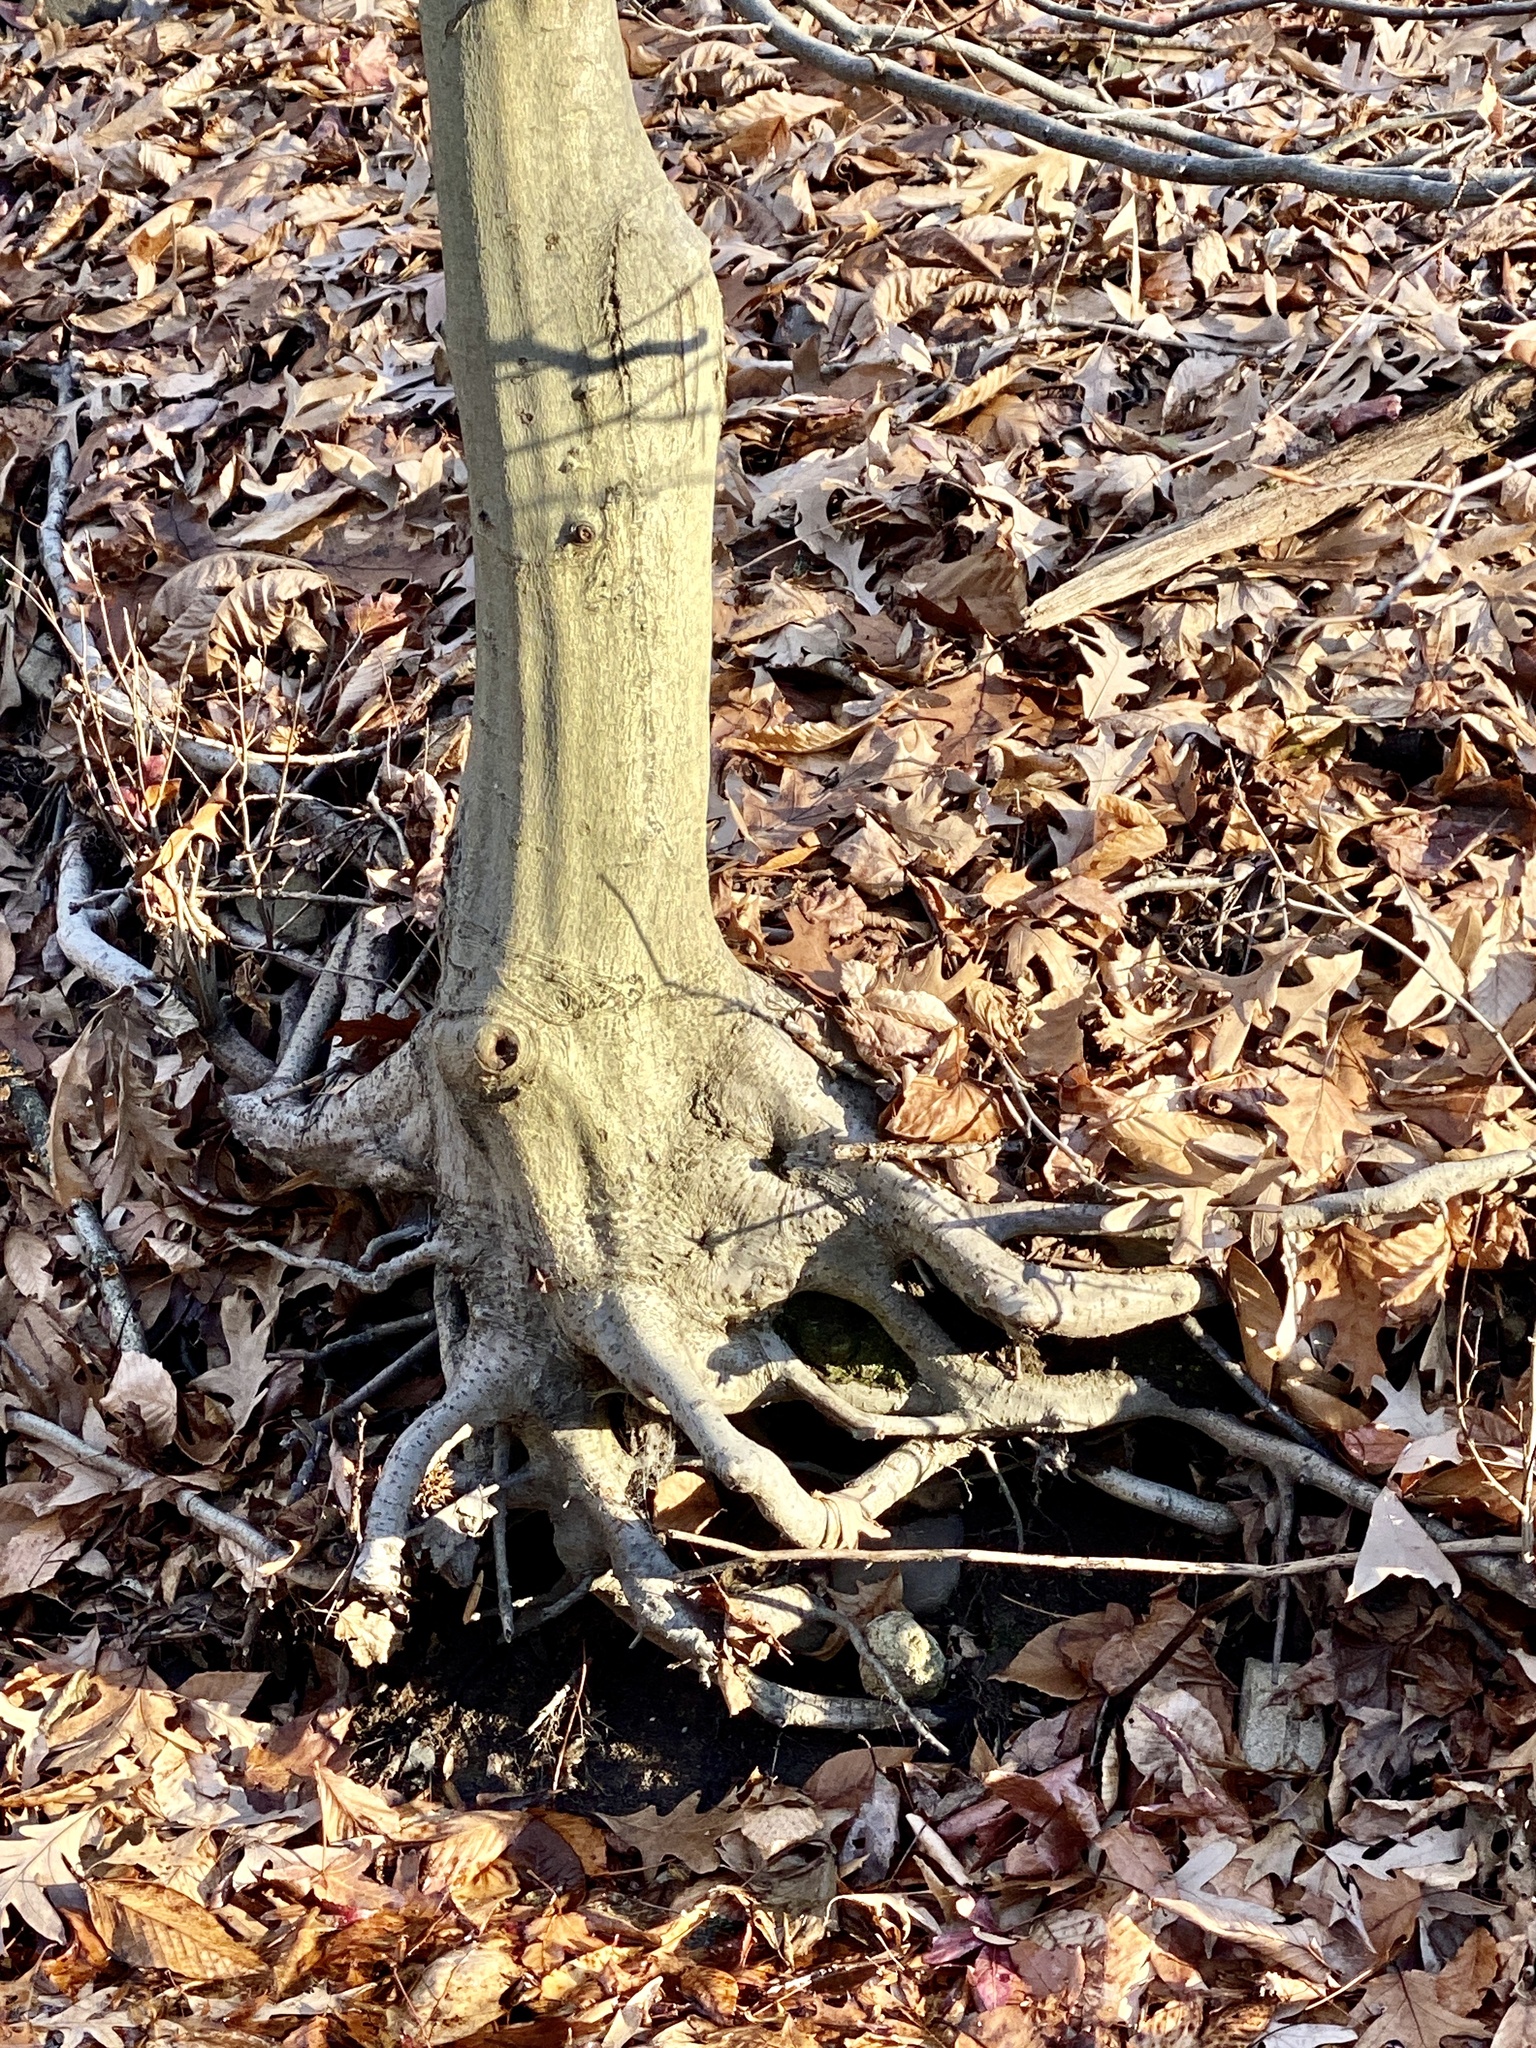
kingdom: Plantae
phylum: Tracheophyta
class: Magnoliopsida
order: Fagales
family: Fagaceae
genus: Fagus
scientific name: Fagus grandifolia
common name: American beech
